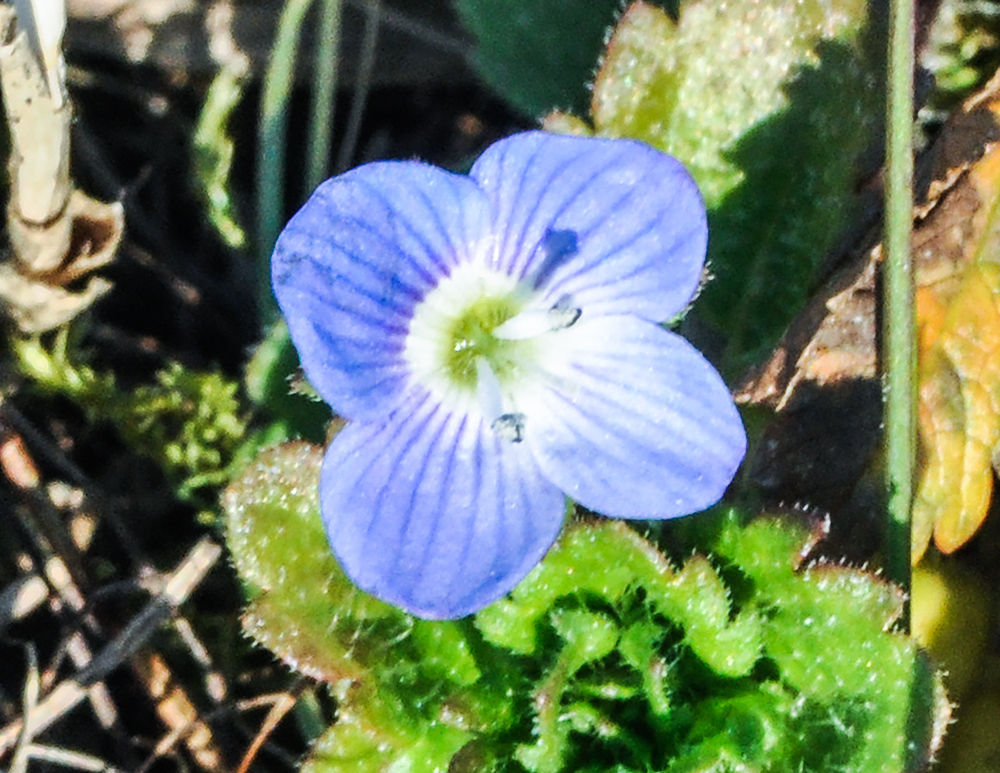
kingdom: Plantae
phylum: Tracheophyta
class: Magnoliopsida
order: Lamiales
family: Plantaginaceae
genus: Veronica
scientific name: Veronica persica
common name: Common field-speedwell
